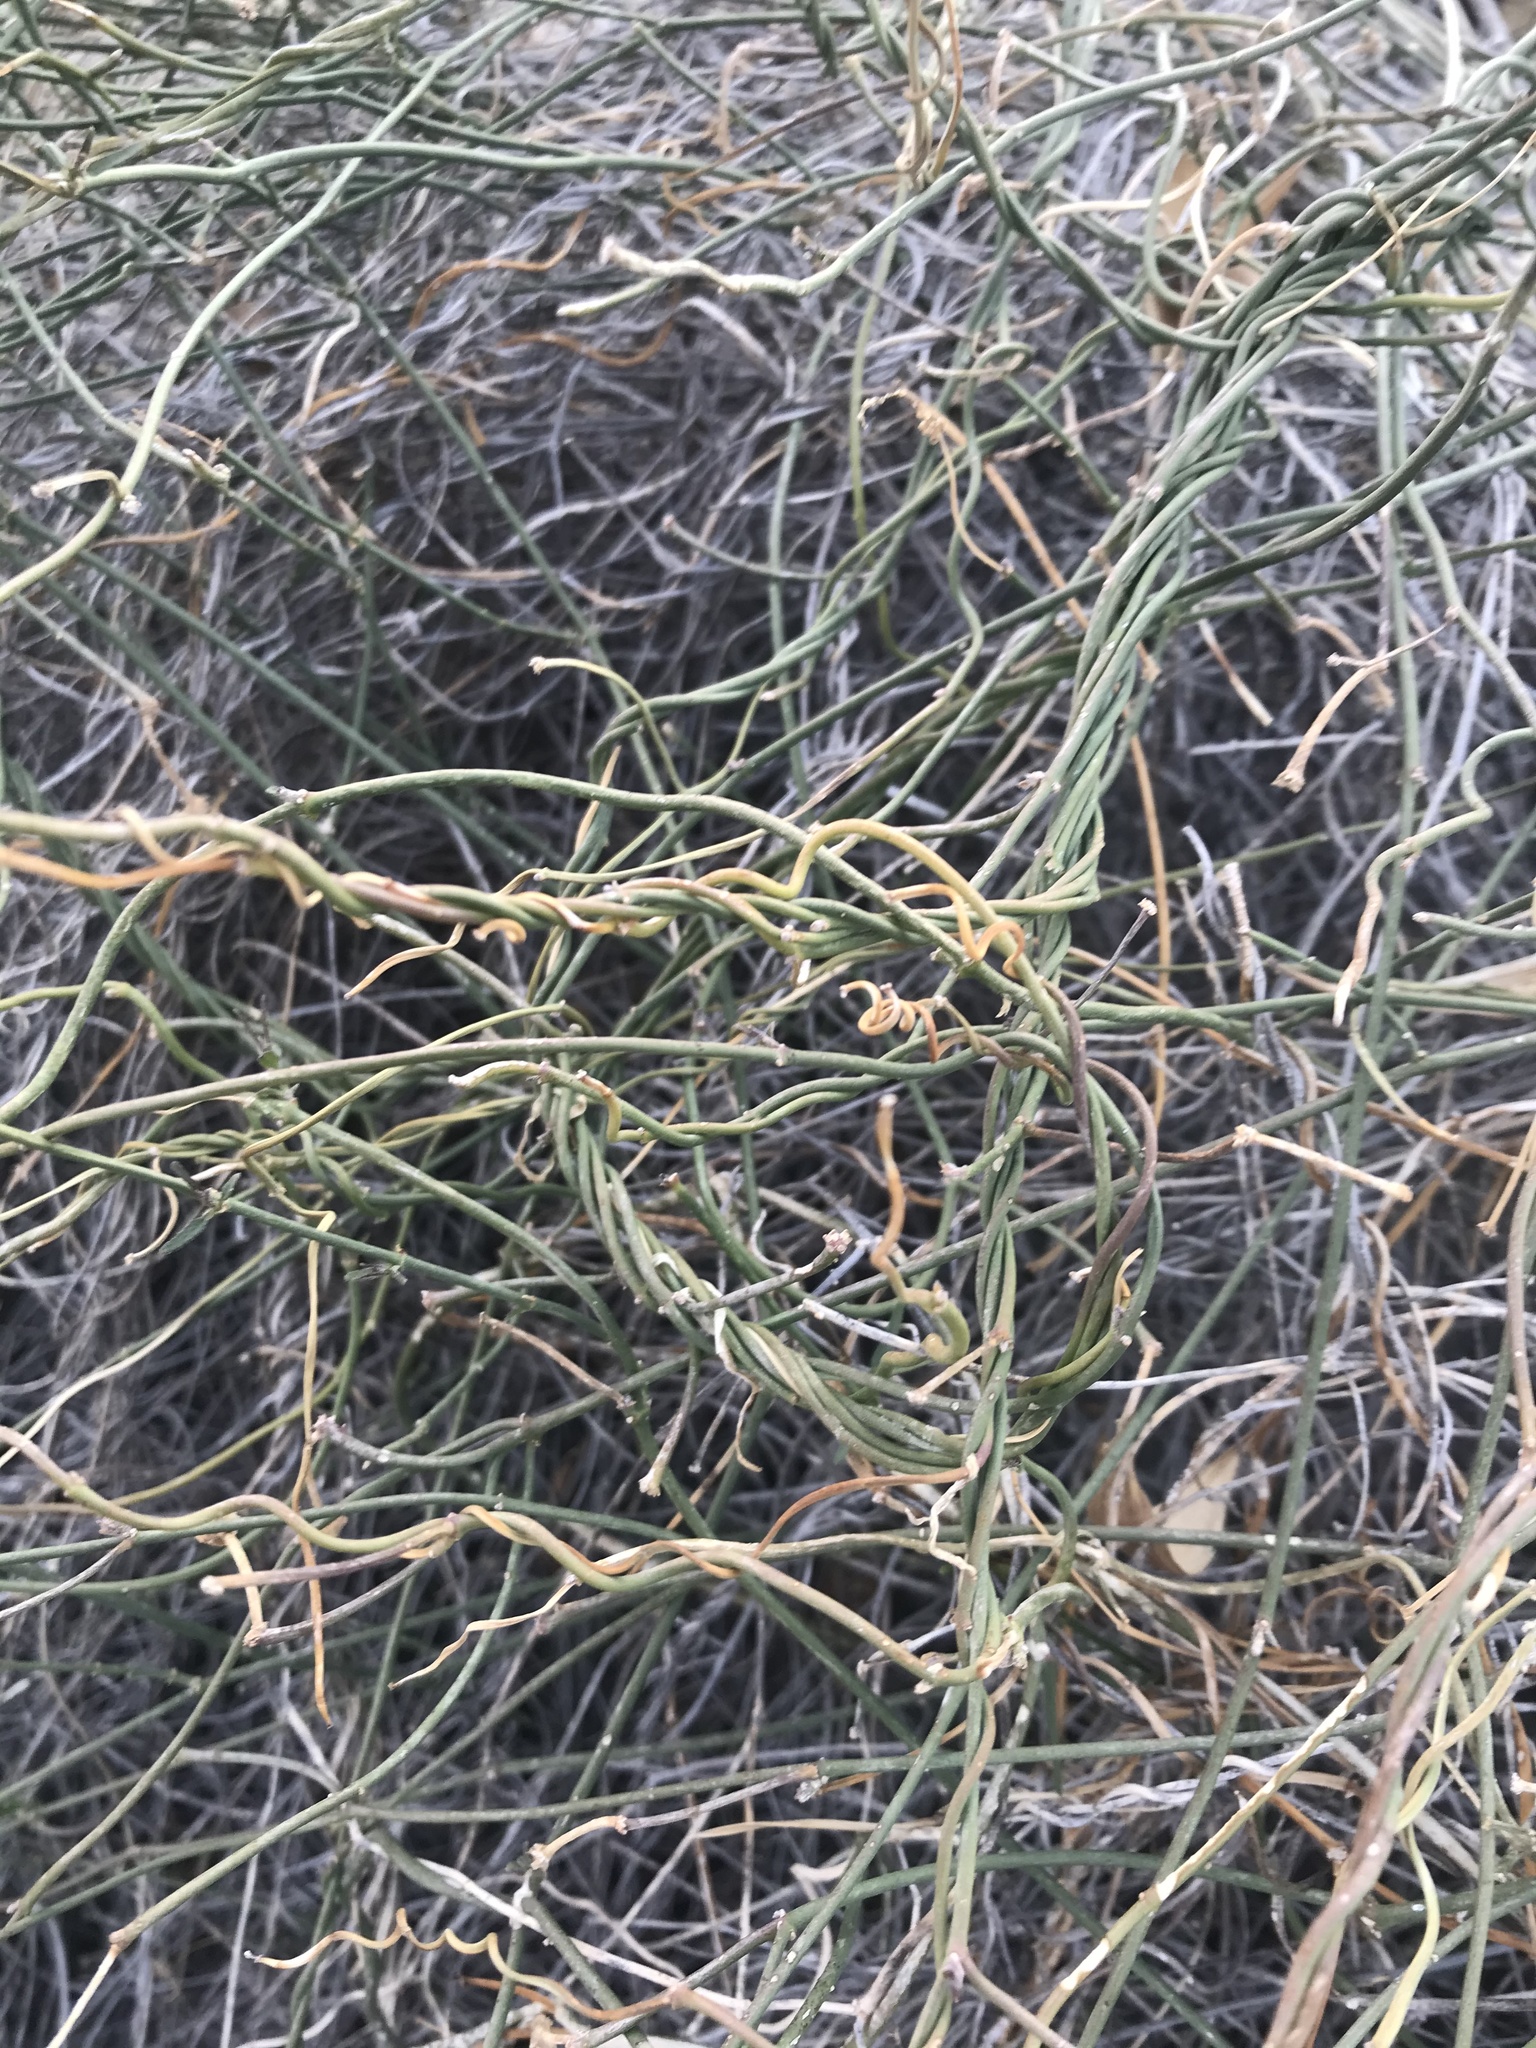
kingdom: Plantae
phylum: Tracheophyta
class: Magnoliopsida
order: Gentianales
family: Apocynaceae
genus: Funastrum
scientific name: Funastrum heterophyllum
